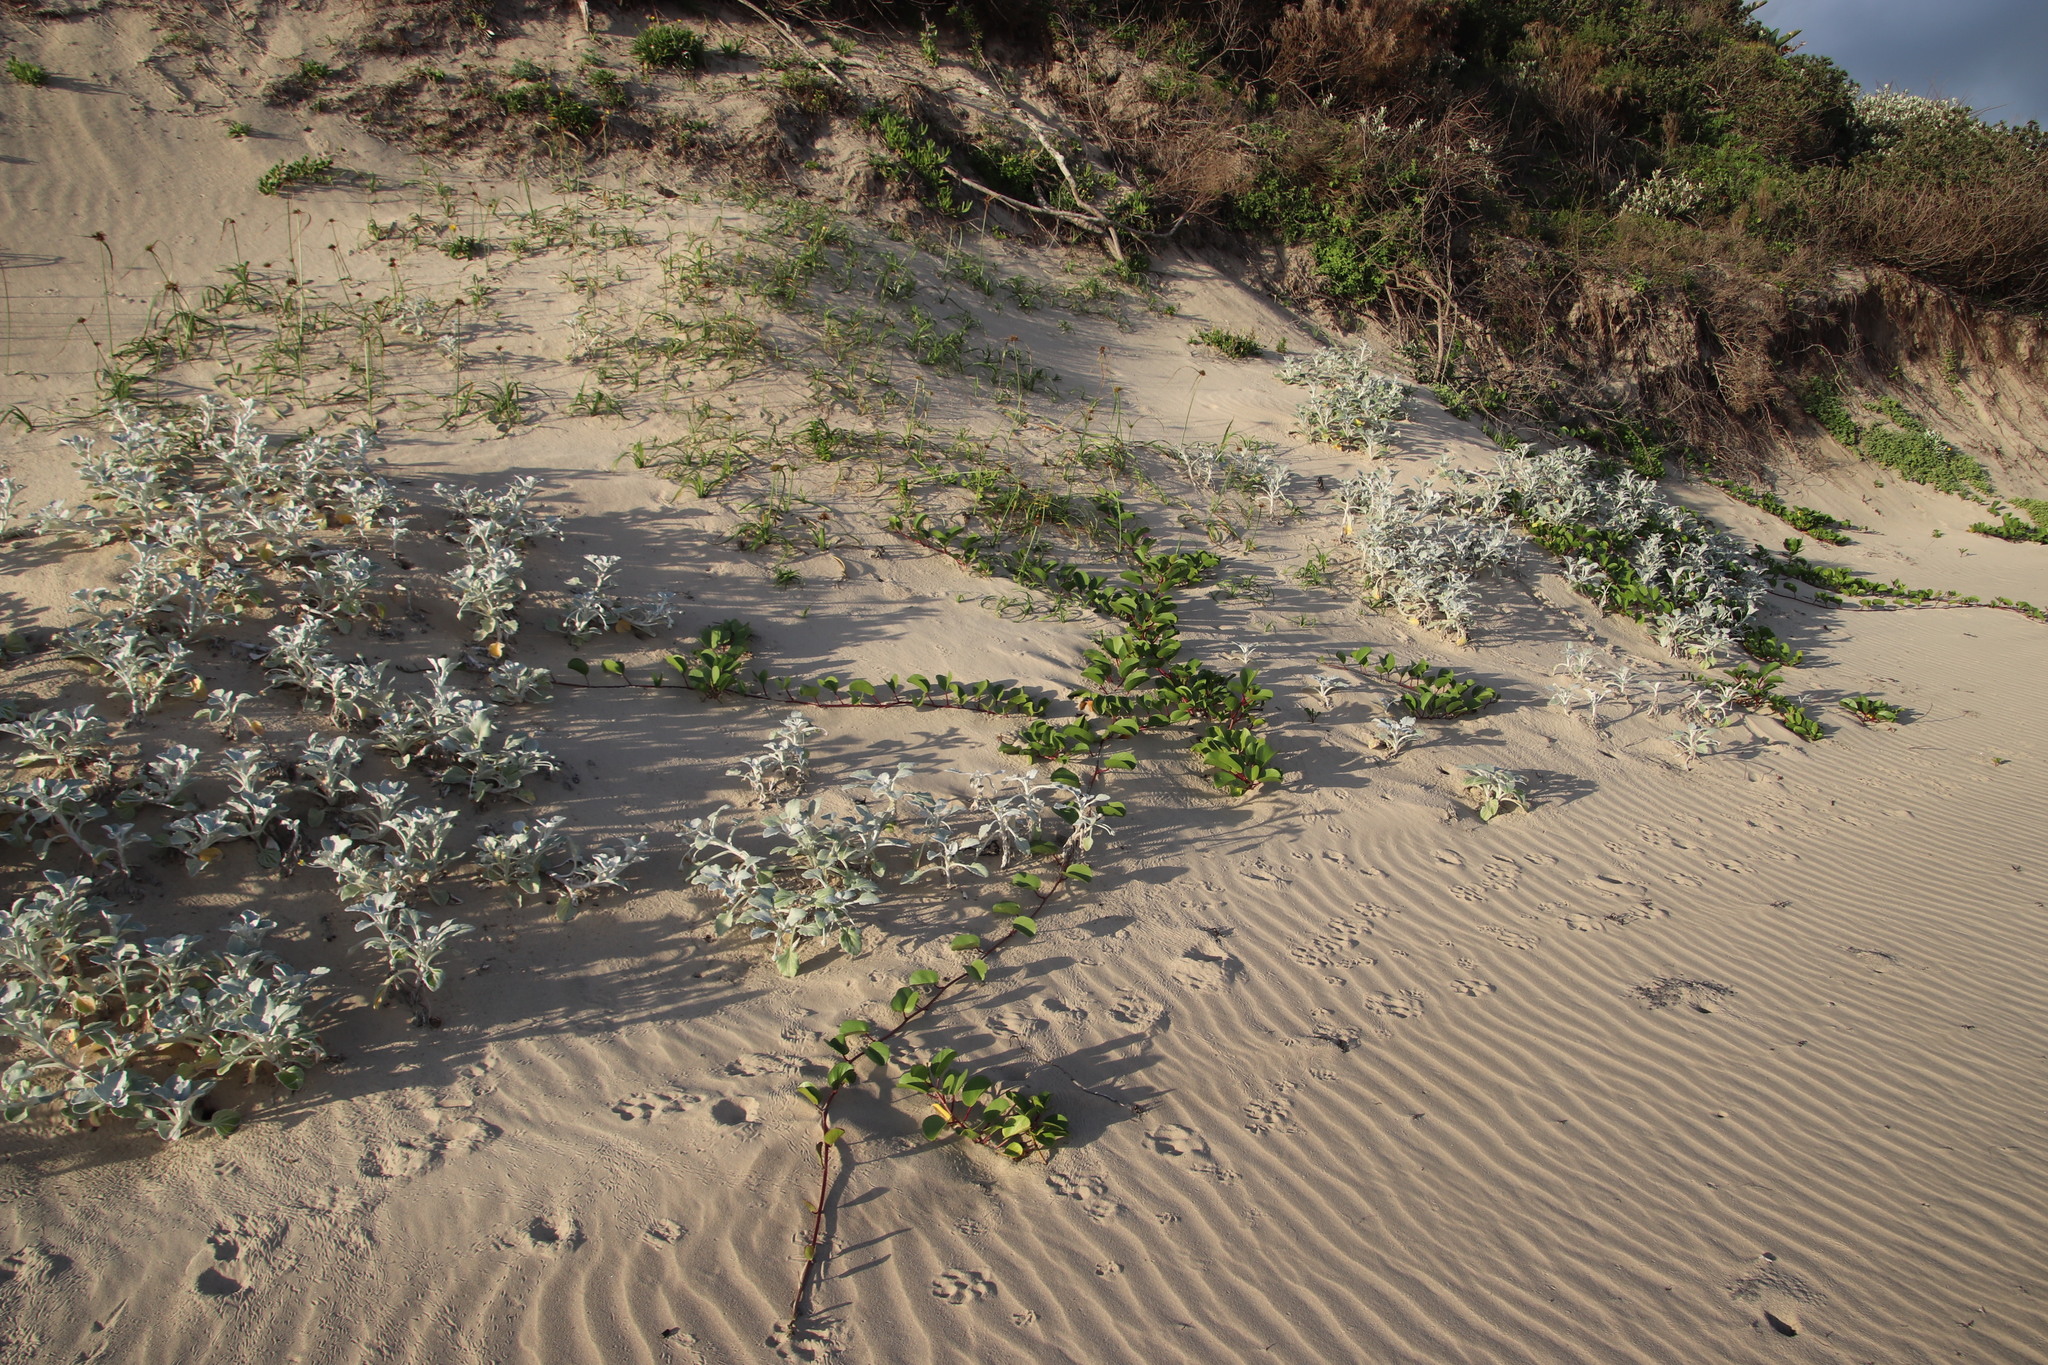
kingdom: Plantae
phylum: Tracheophyta
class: Magnoliopsida
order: Solanales
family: Convolvulaceae
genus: Ipomoea
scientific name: Ipomoea pes-caprae
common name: Beach morning glory
